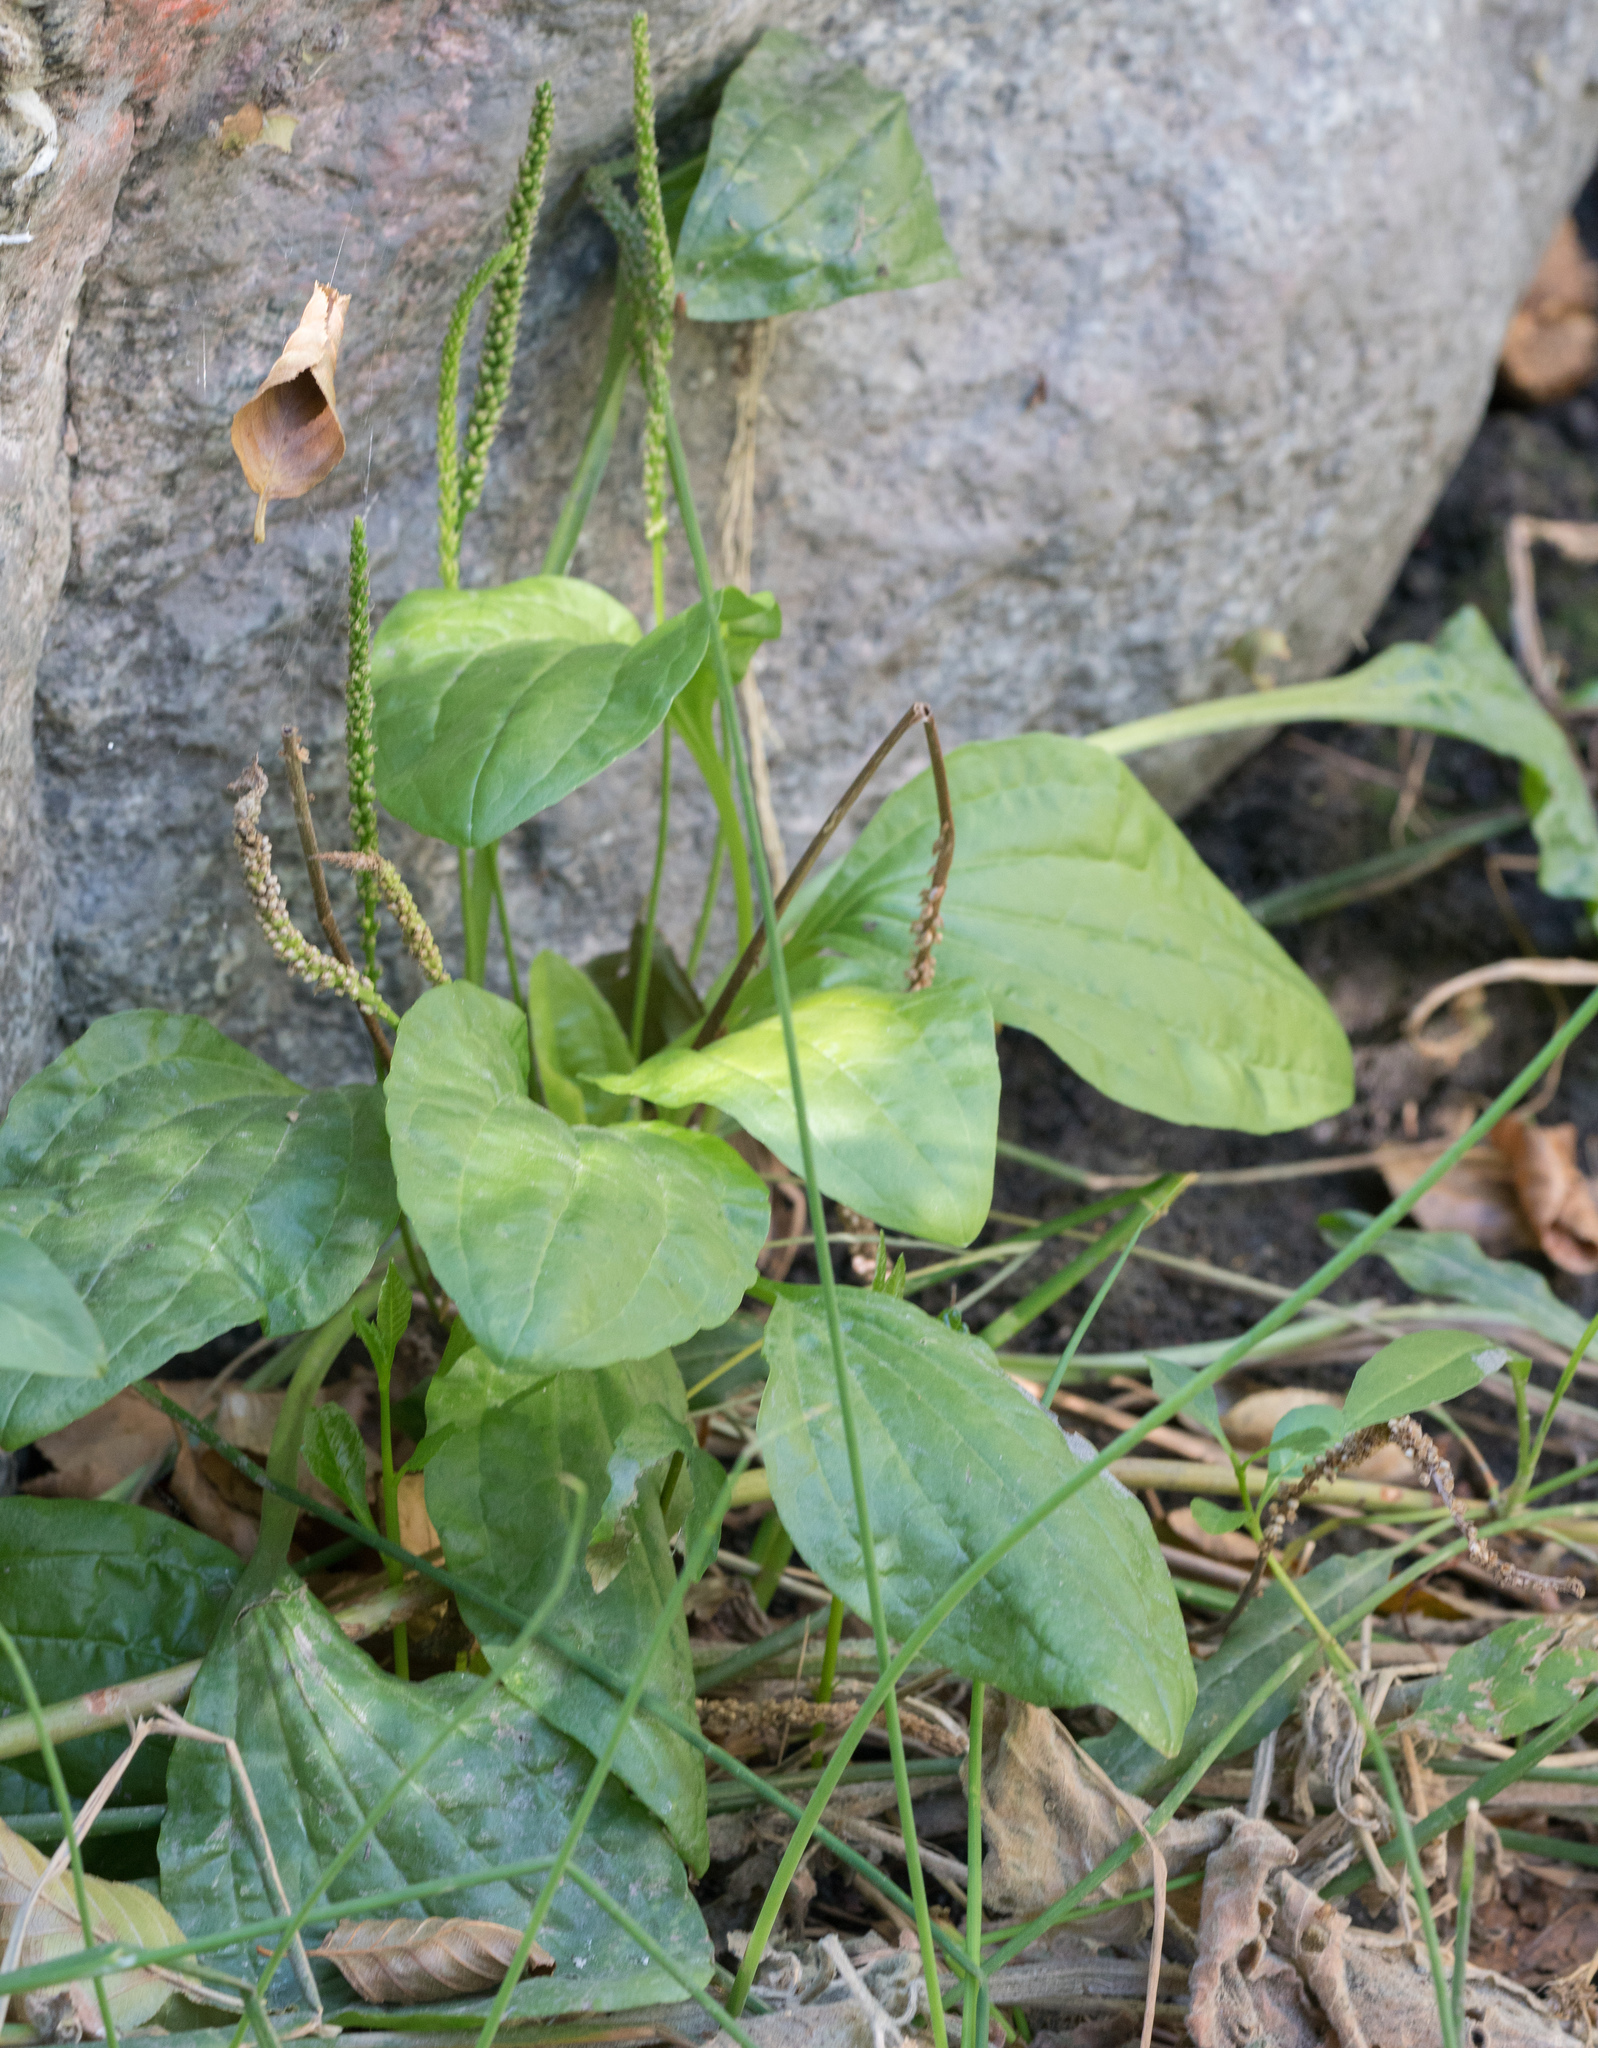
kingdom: Plantae
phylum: Tracheophyta
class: Magnoliopsida
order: Lamiales
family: Plantaginaceae
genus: Plantago
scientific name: Plantago major
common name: Common plantain
